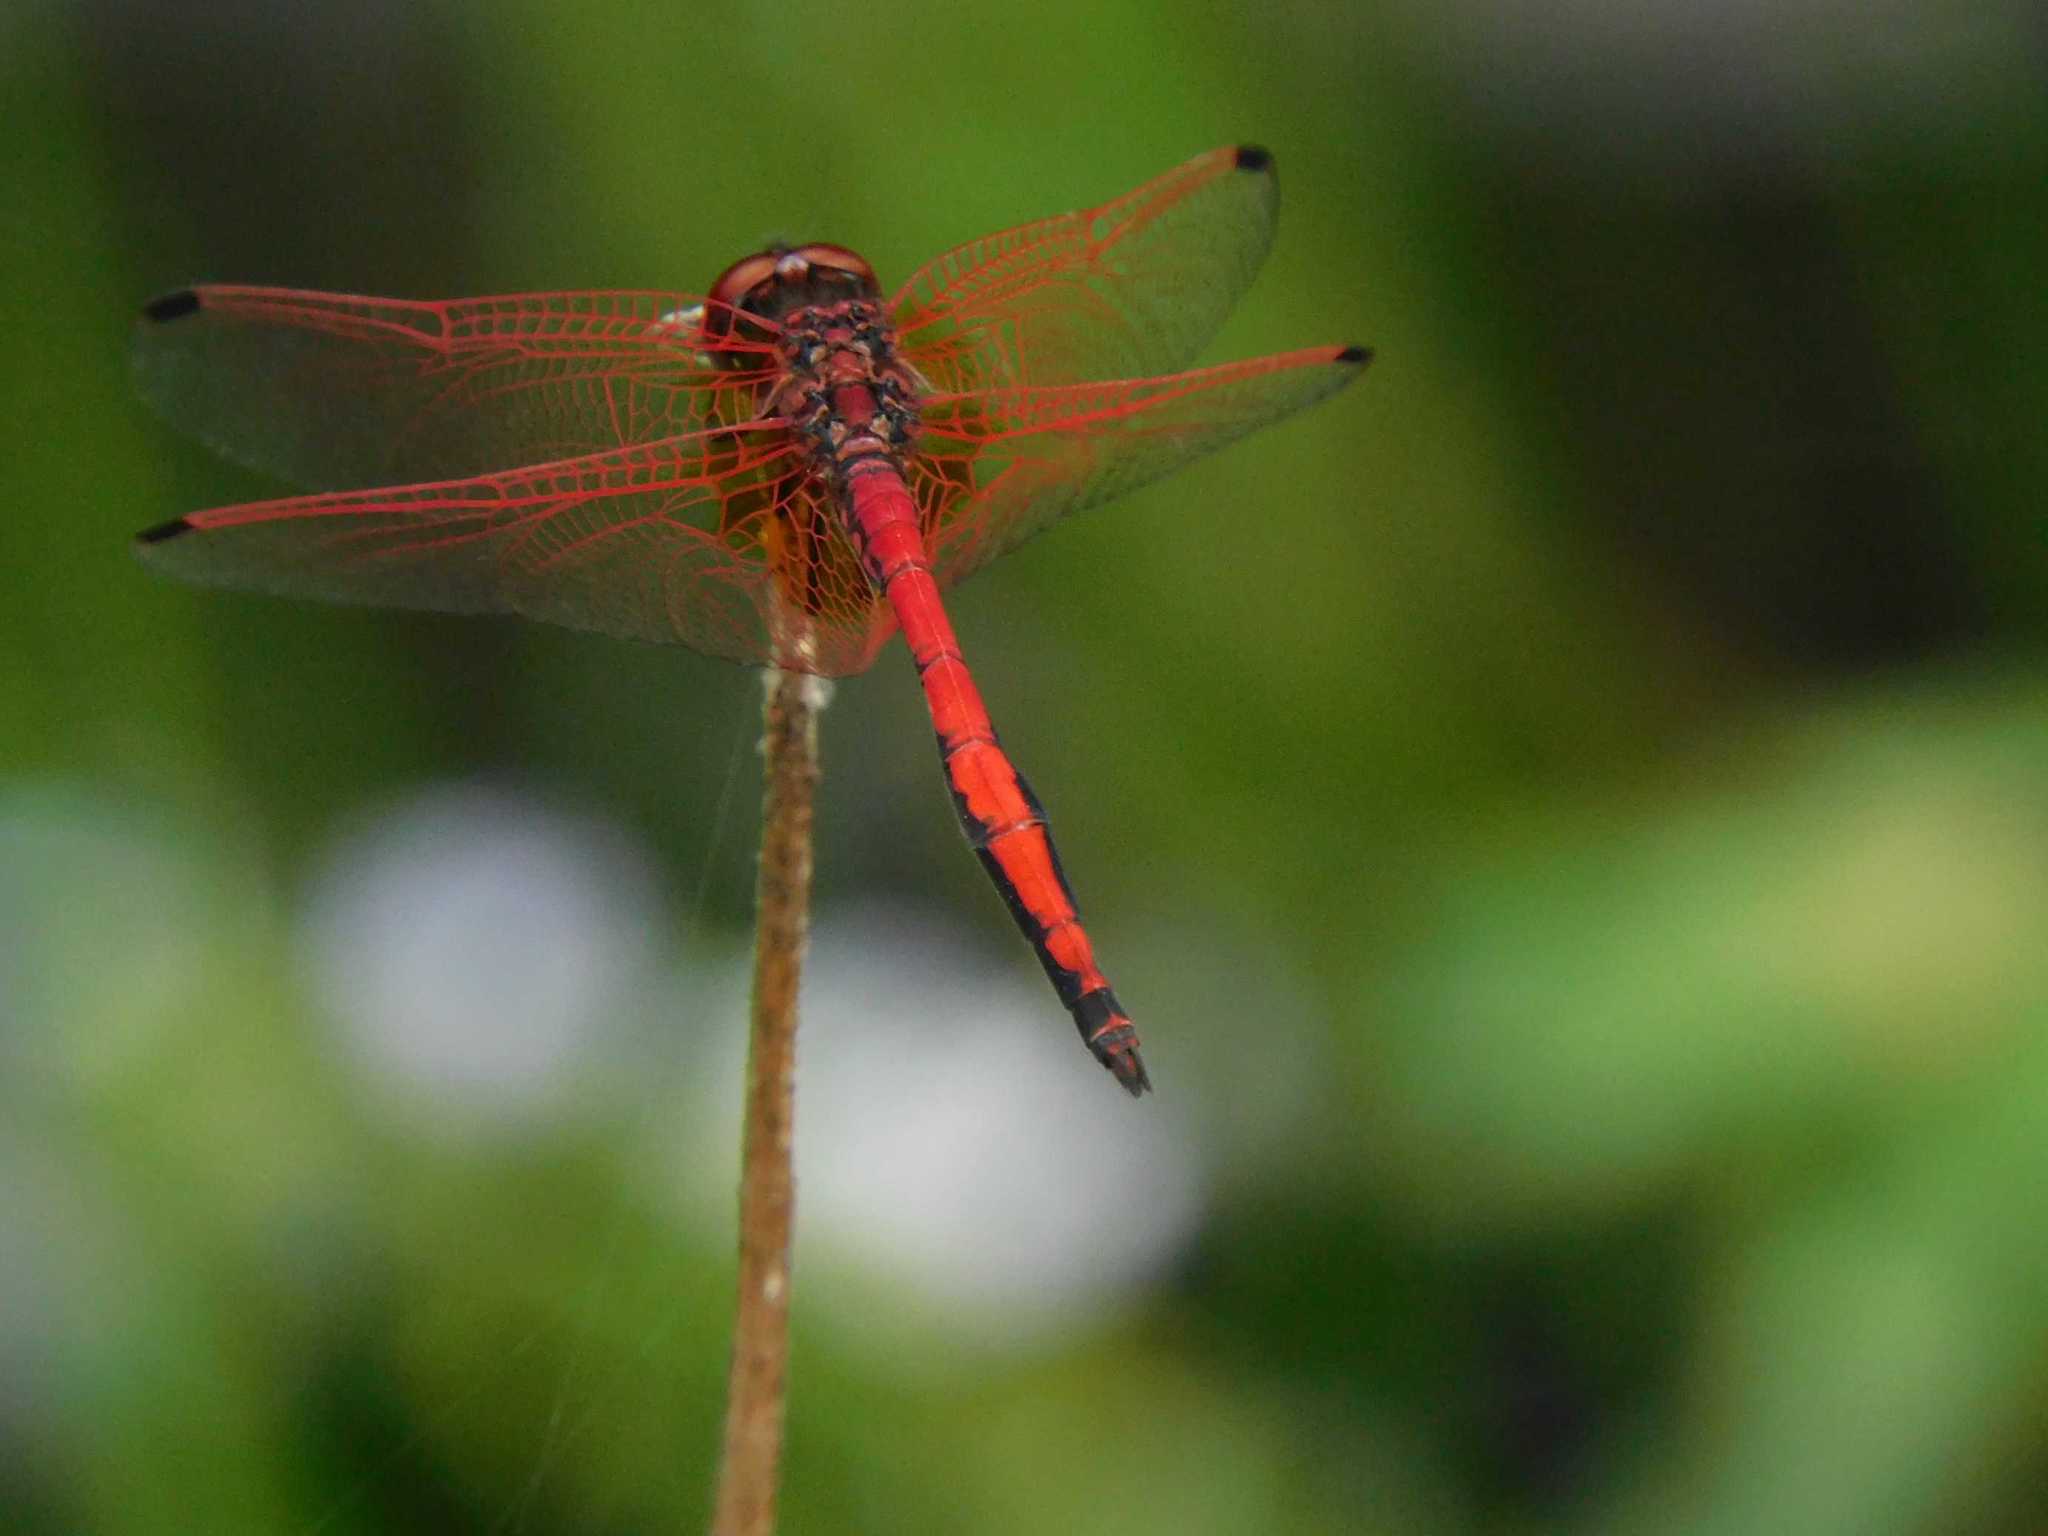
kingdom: Animalia
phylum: Arthropoda
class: Insecta
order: Odonata
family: Libellulidae
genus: Trithemis
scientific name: Trithemis arteriosa
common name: Red-veined dropwing
